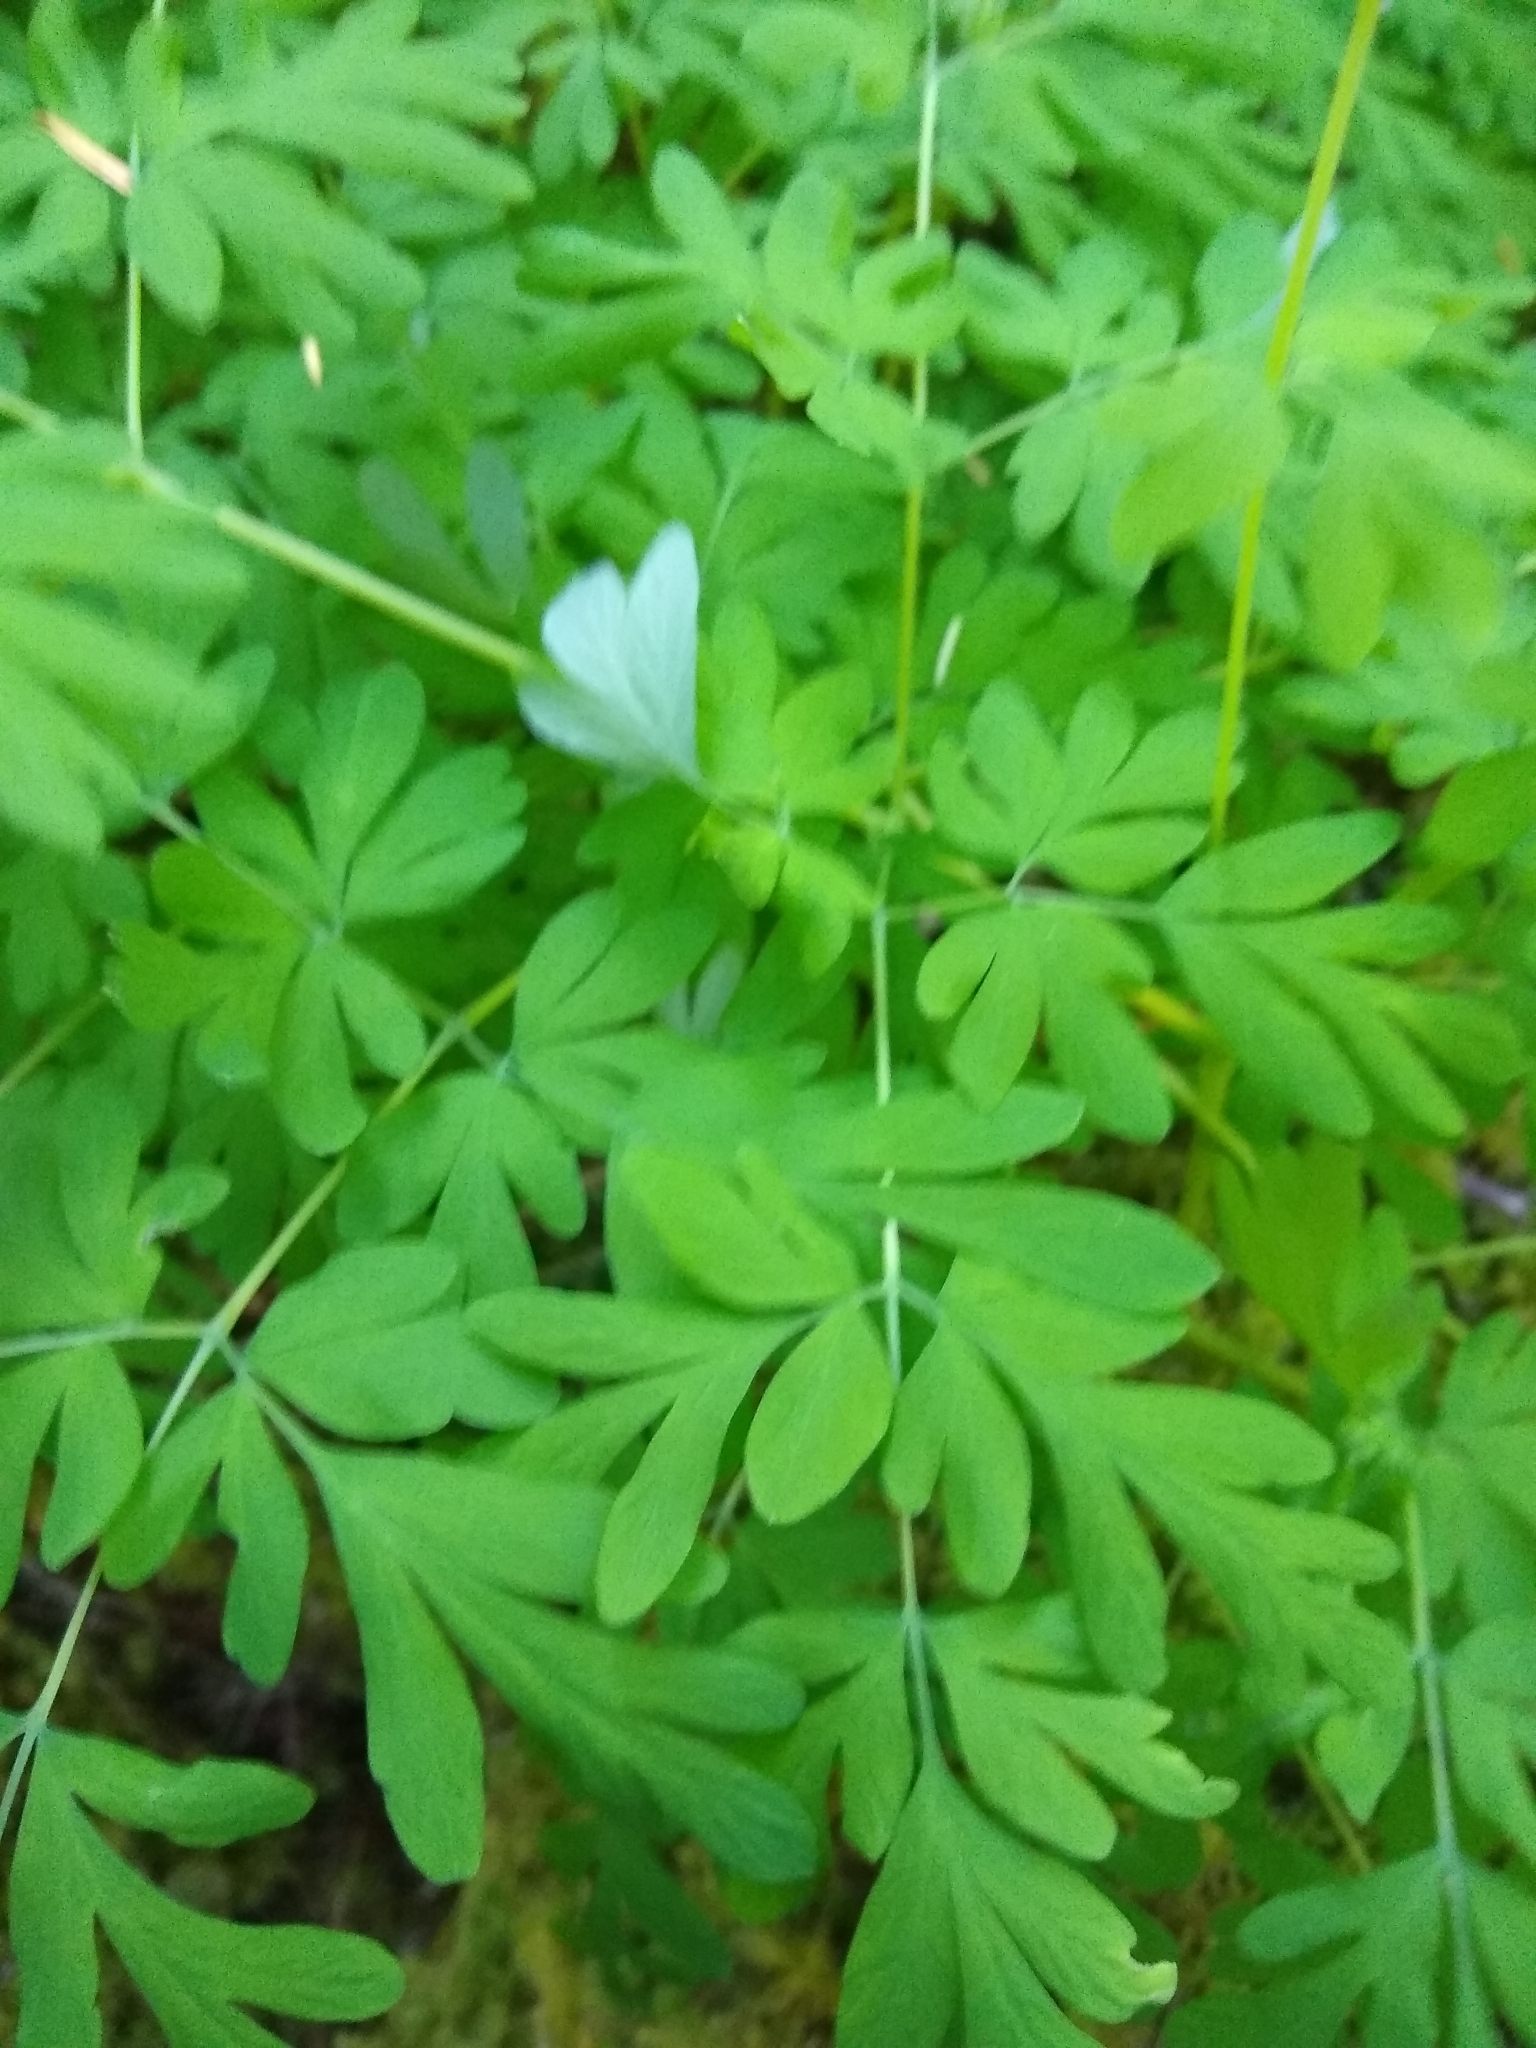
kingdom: Plantae
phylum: Tracheophyta
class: Magnoliopsida
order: Ranunculales
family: Papaveraceae
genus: Corydalis
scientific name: Corydalis scouleri
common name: Scouler's corydalis
